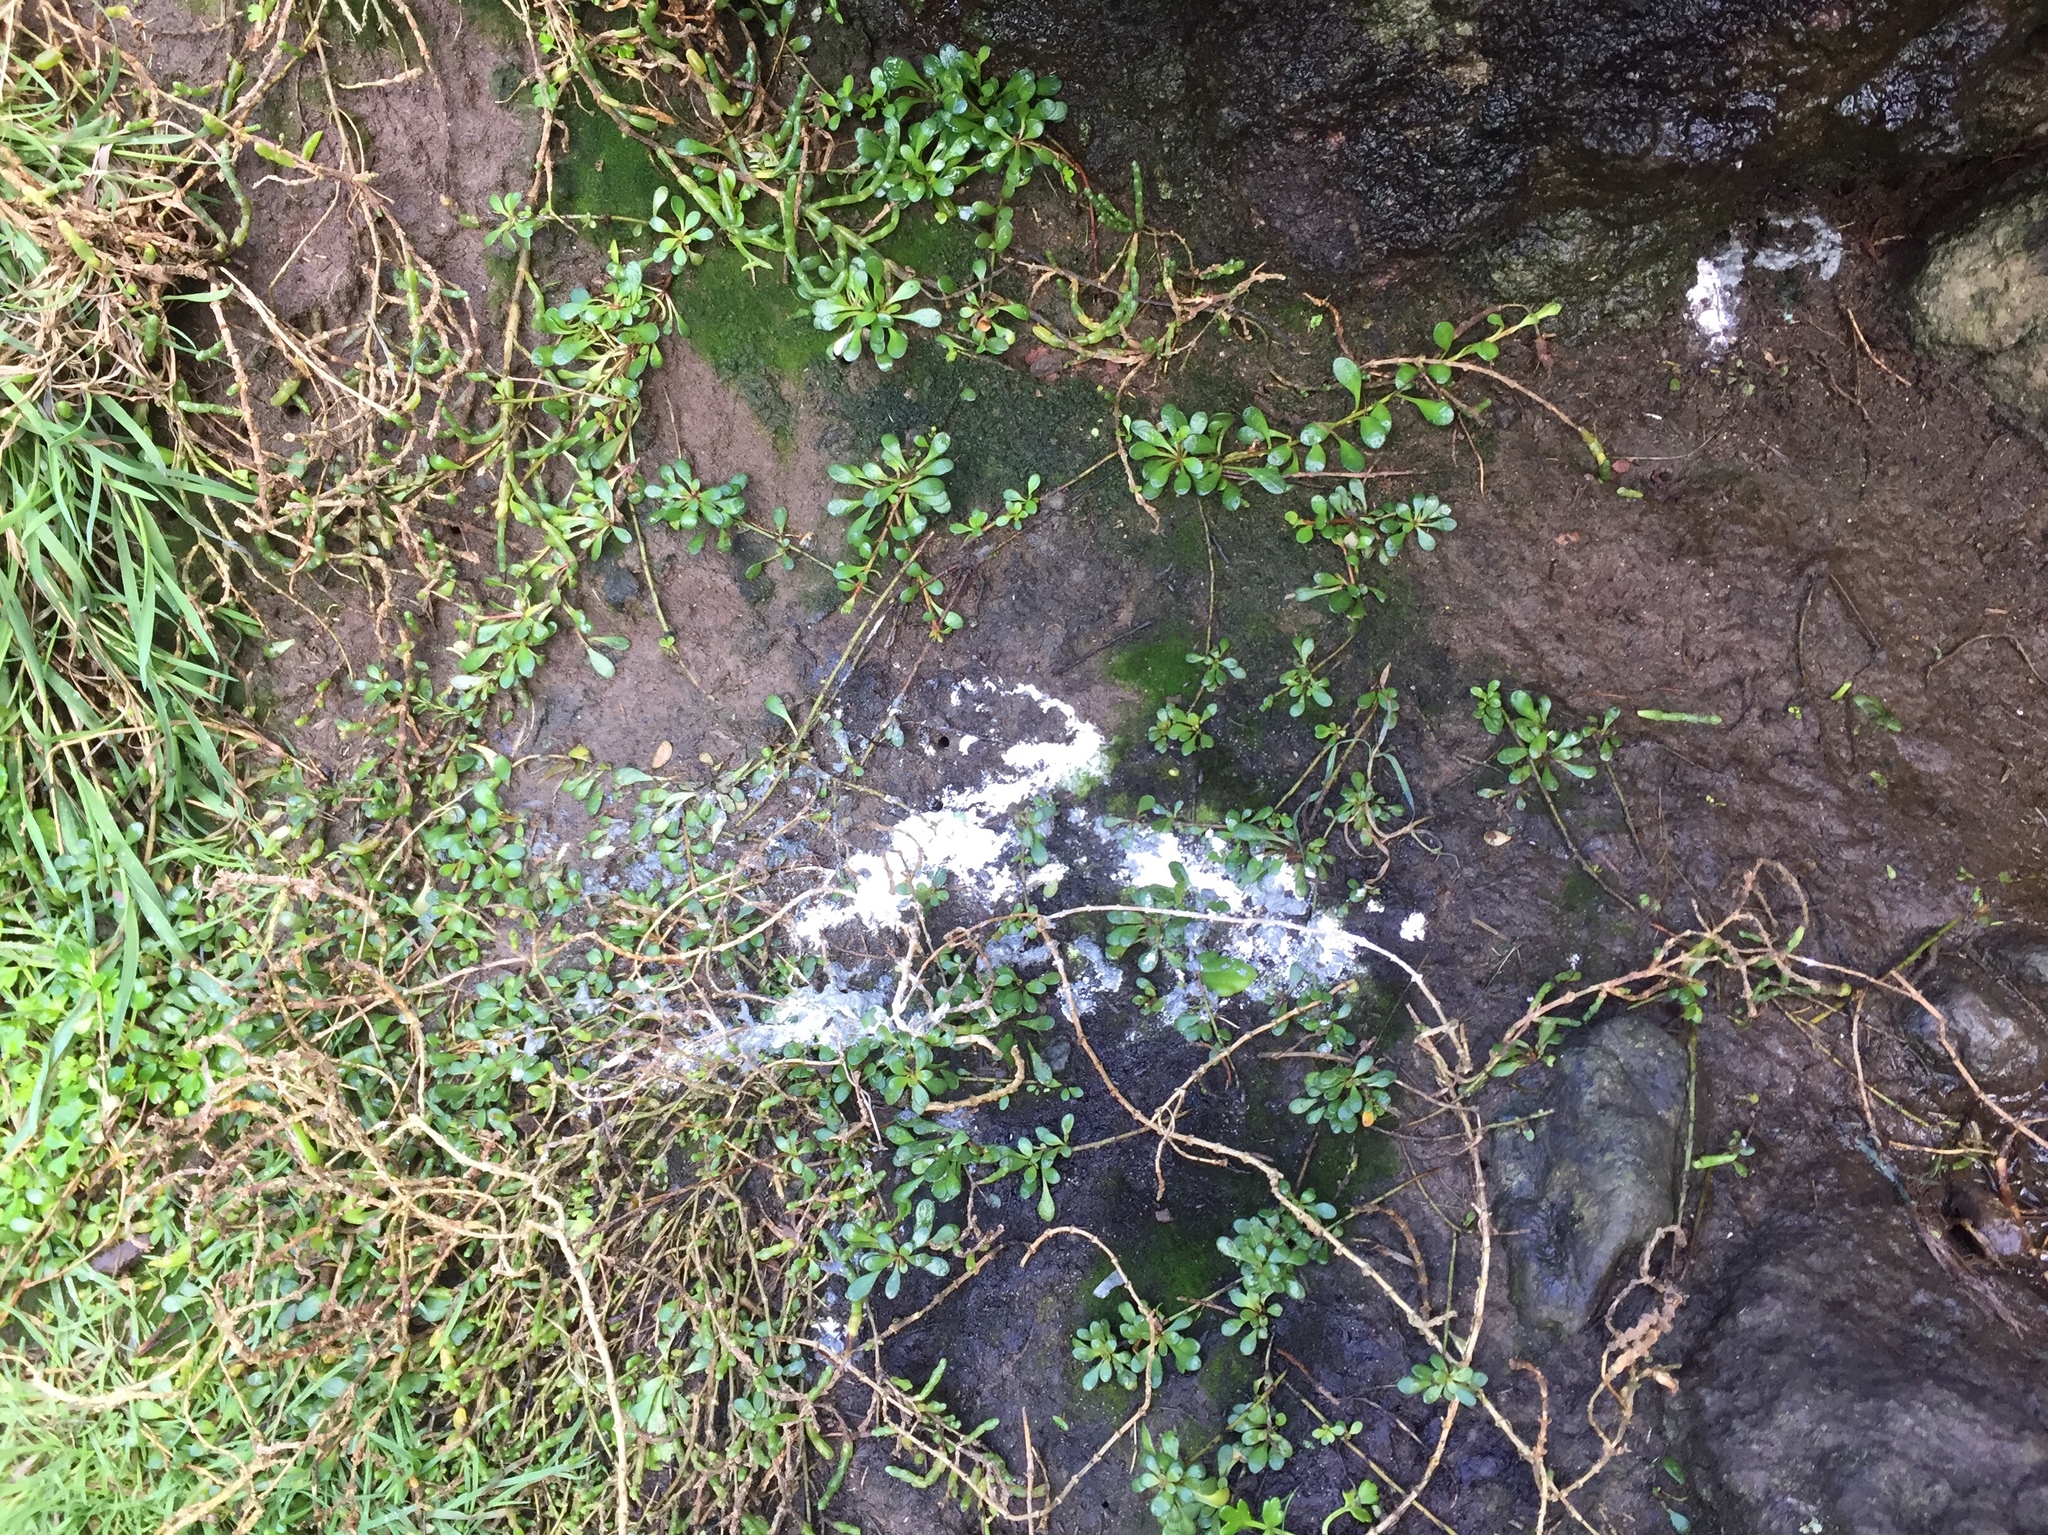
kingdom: Animalia
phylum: Chordata
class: Aves
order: Sphenisciformes
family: Spheniscidae
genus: Eudyptula
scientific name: Eudyptula minor
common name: Little penguin
